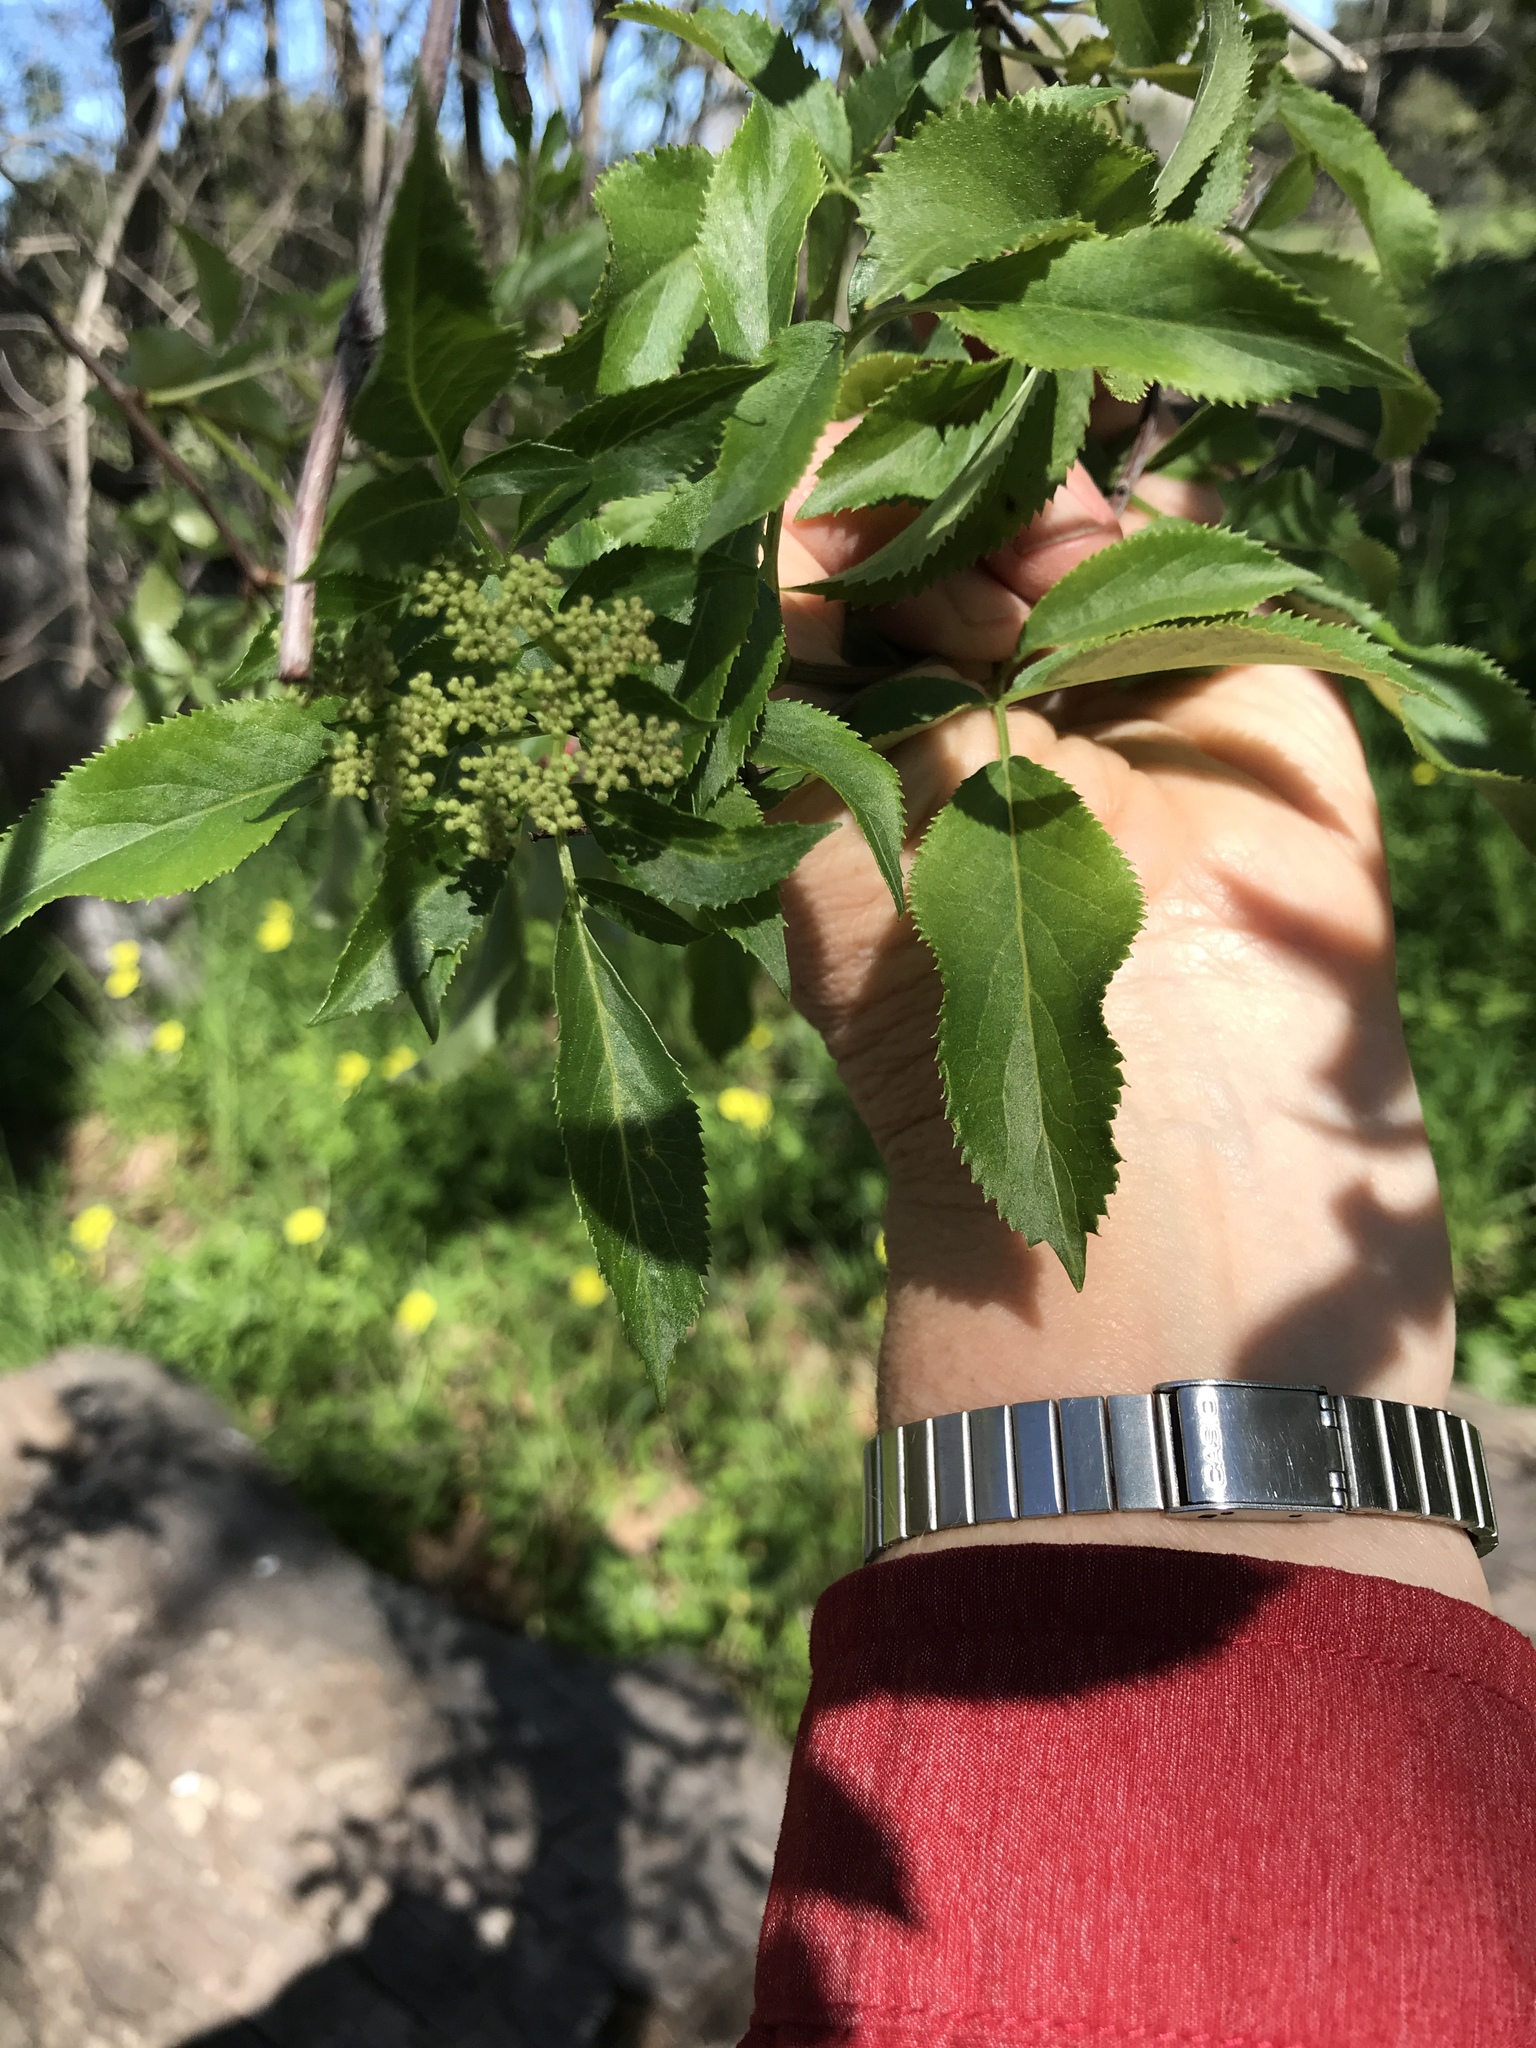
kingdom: Plantae
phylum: Tracheophyta
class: Magnoliopsida
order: Dipsacales
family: Viburnaceae
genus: Sambucus
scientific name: Sambucus cerulea
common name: Blue elder
